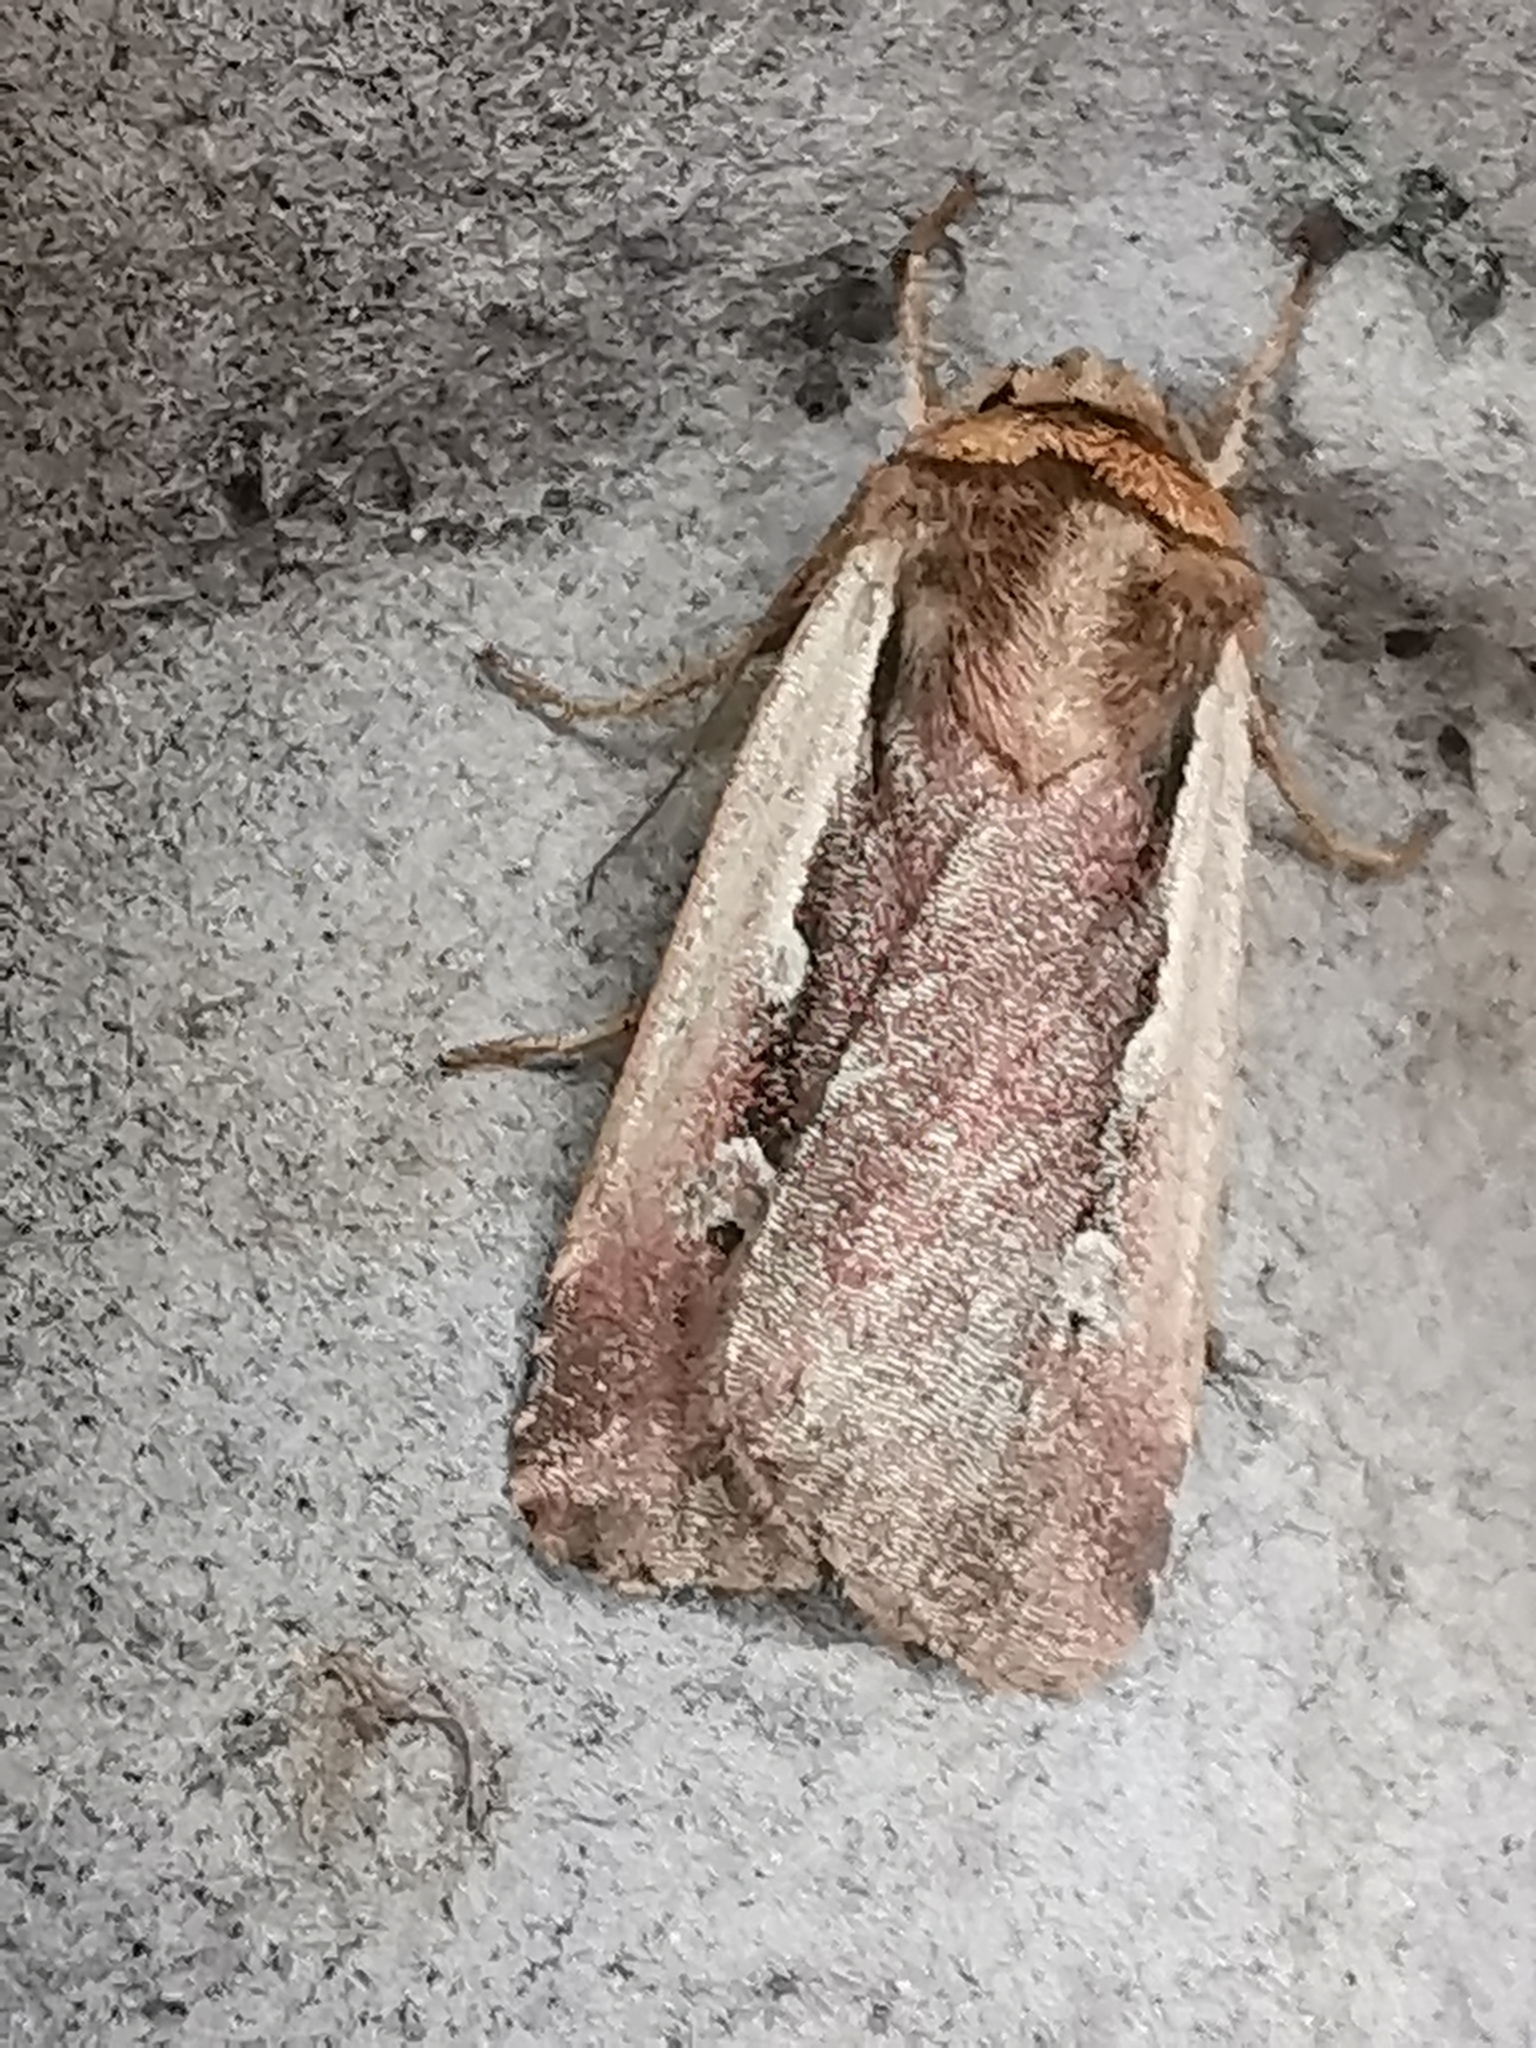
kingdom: Animalia
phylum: Arthropoda
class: Insecta
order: Lepidoptera
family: Noctuidae
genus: Ochropleura
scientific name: Ochropleura plecta
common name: Flame shoulder
